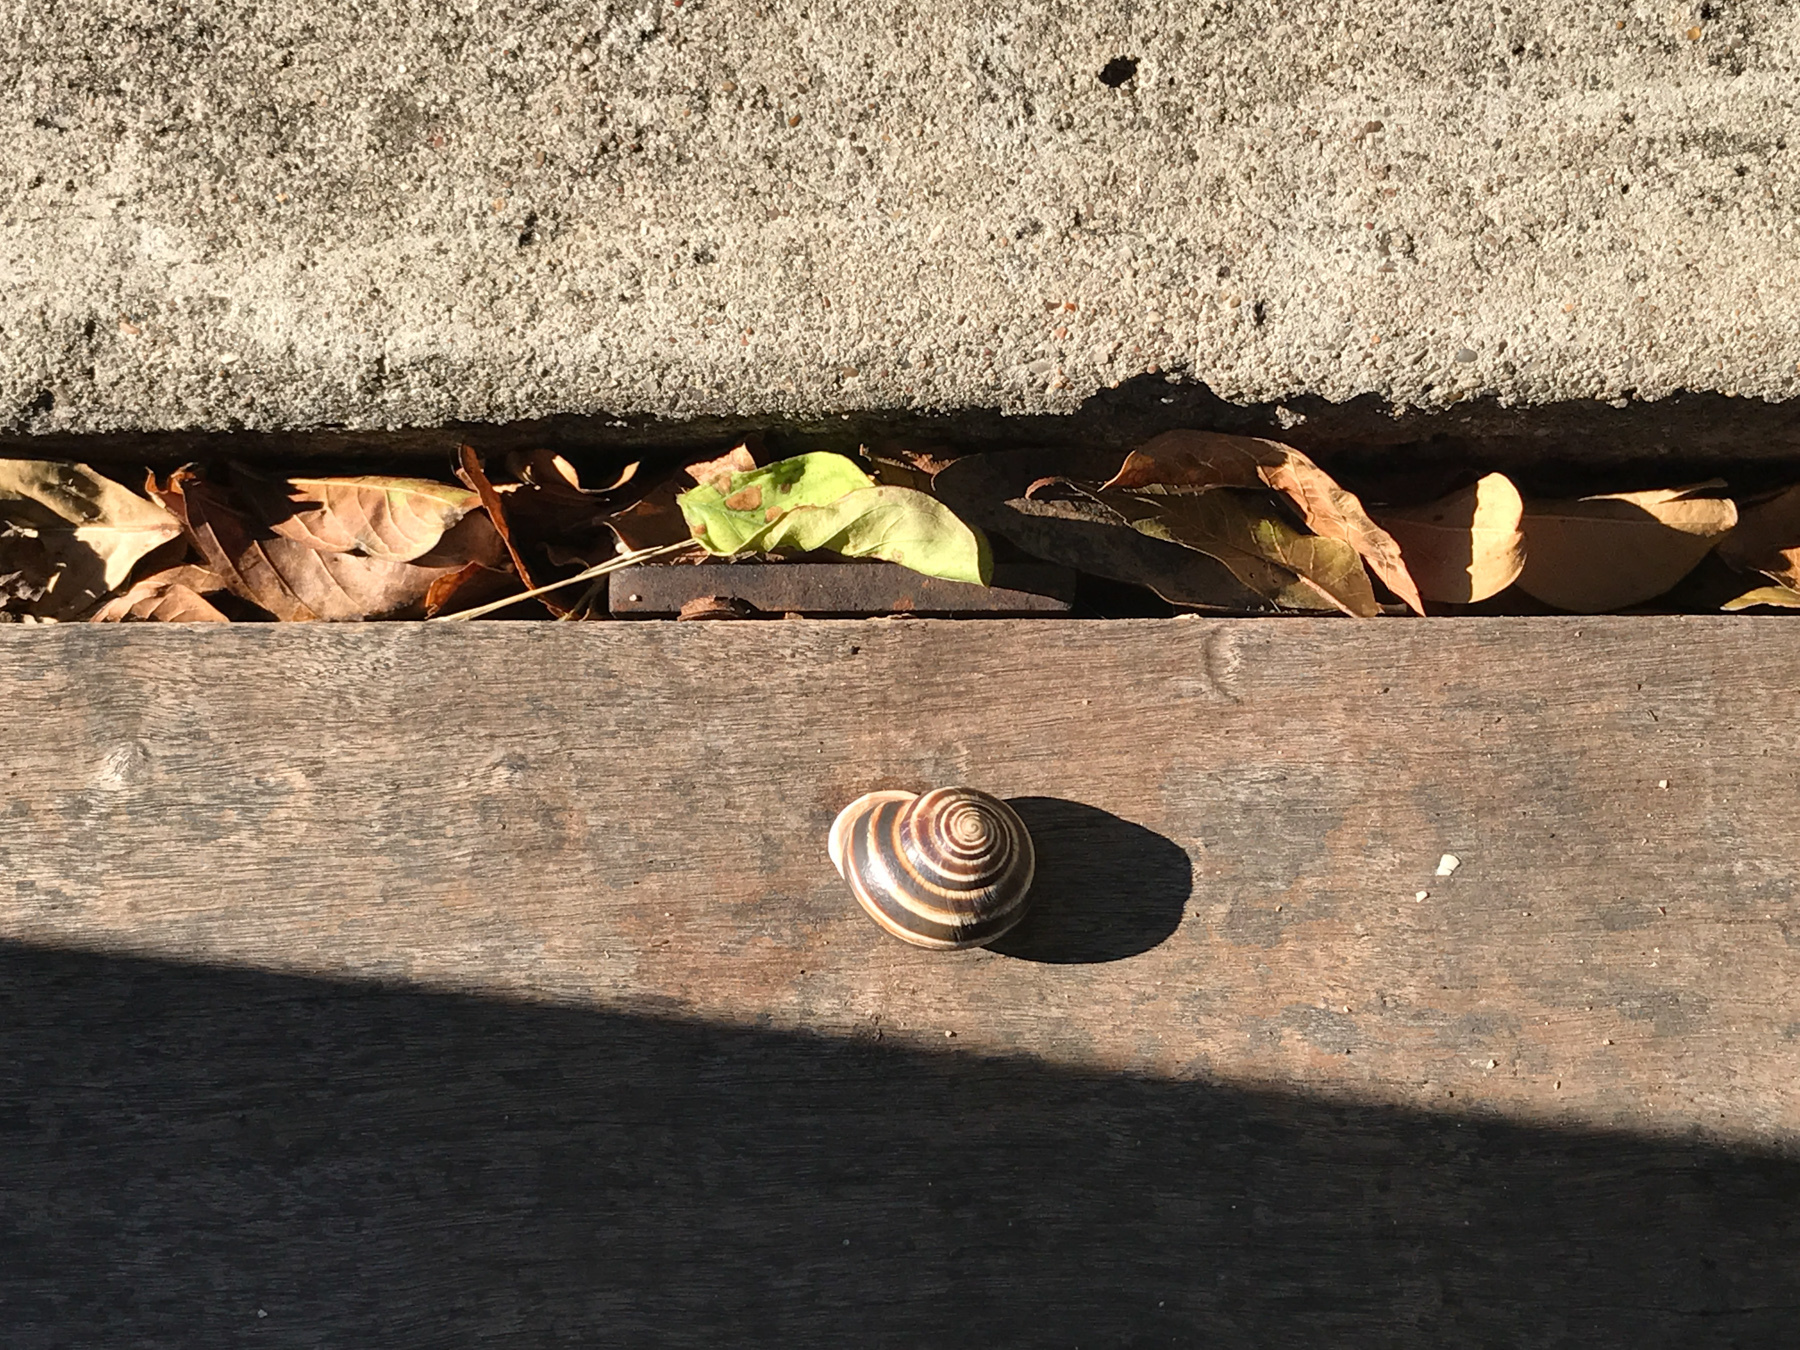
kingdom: Animalia
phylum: Mollusca
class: Gastropoda
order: Stylommatophora
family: Helicidae
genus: Otala
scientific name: Otala lactea
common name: Milk snail
